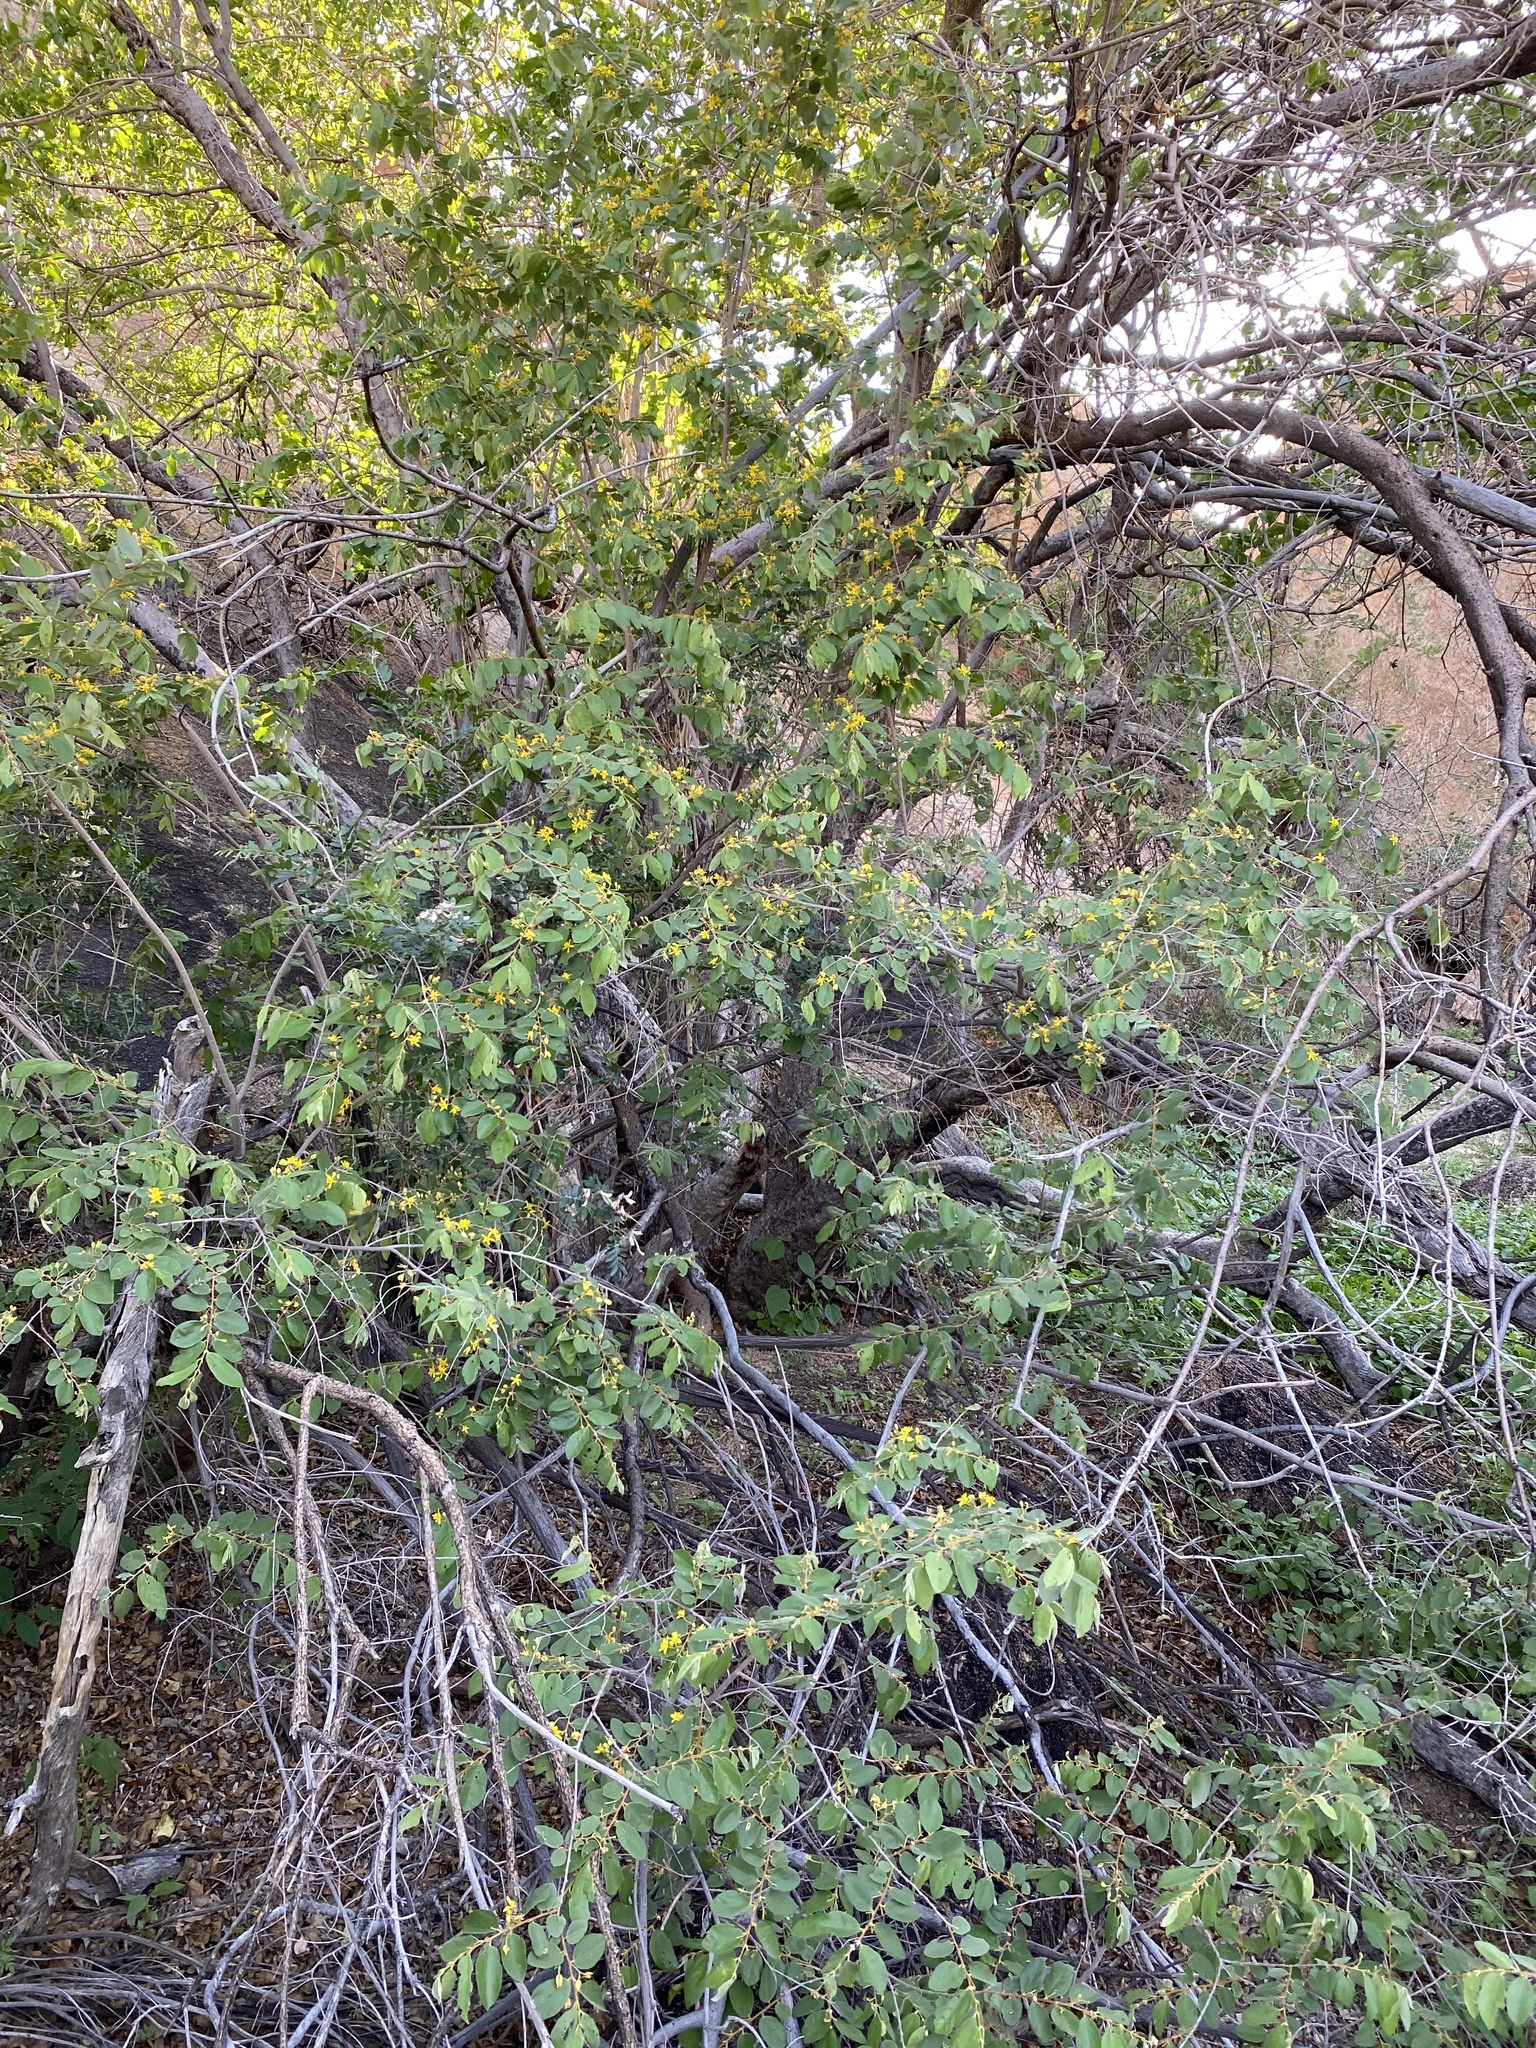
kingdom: Plantae
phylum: Tracheophyta
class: Magnoliopsida
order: Malvales
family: Malvaceae
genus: Grewia
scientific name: Grewia flavescens
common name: Sandpaper raisin
